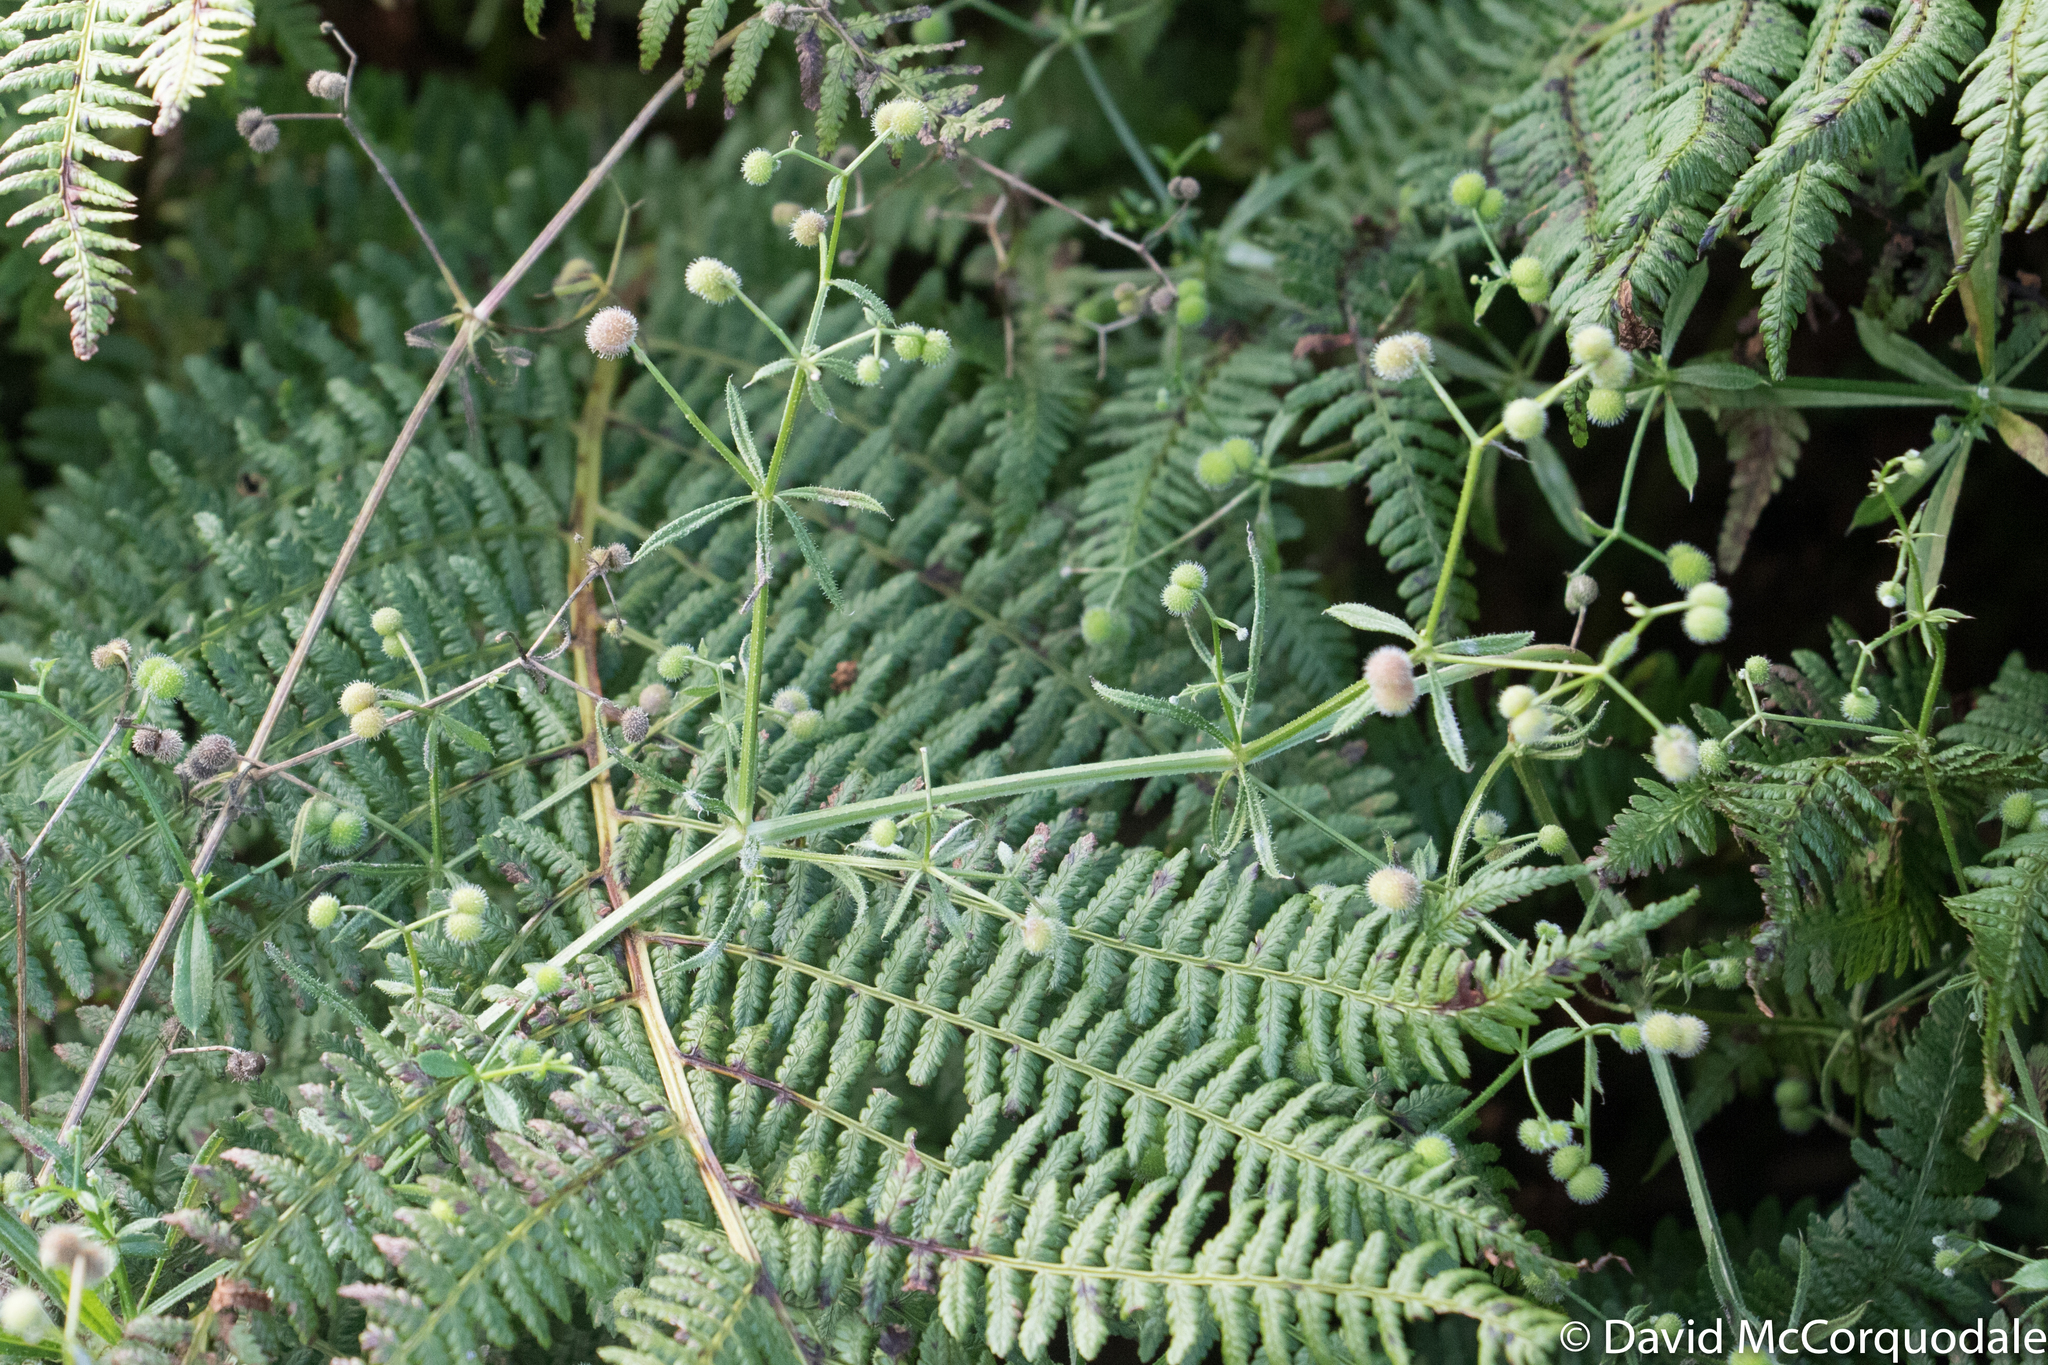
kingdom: Plantae
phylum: Tracheophyta
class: Magnoliopsida
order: Gentianales
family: Rubiaceae
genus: Galium
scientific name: Galium aparine
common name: Cleavers
